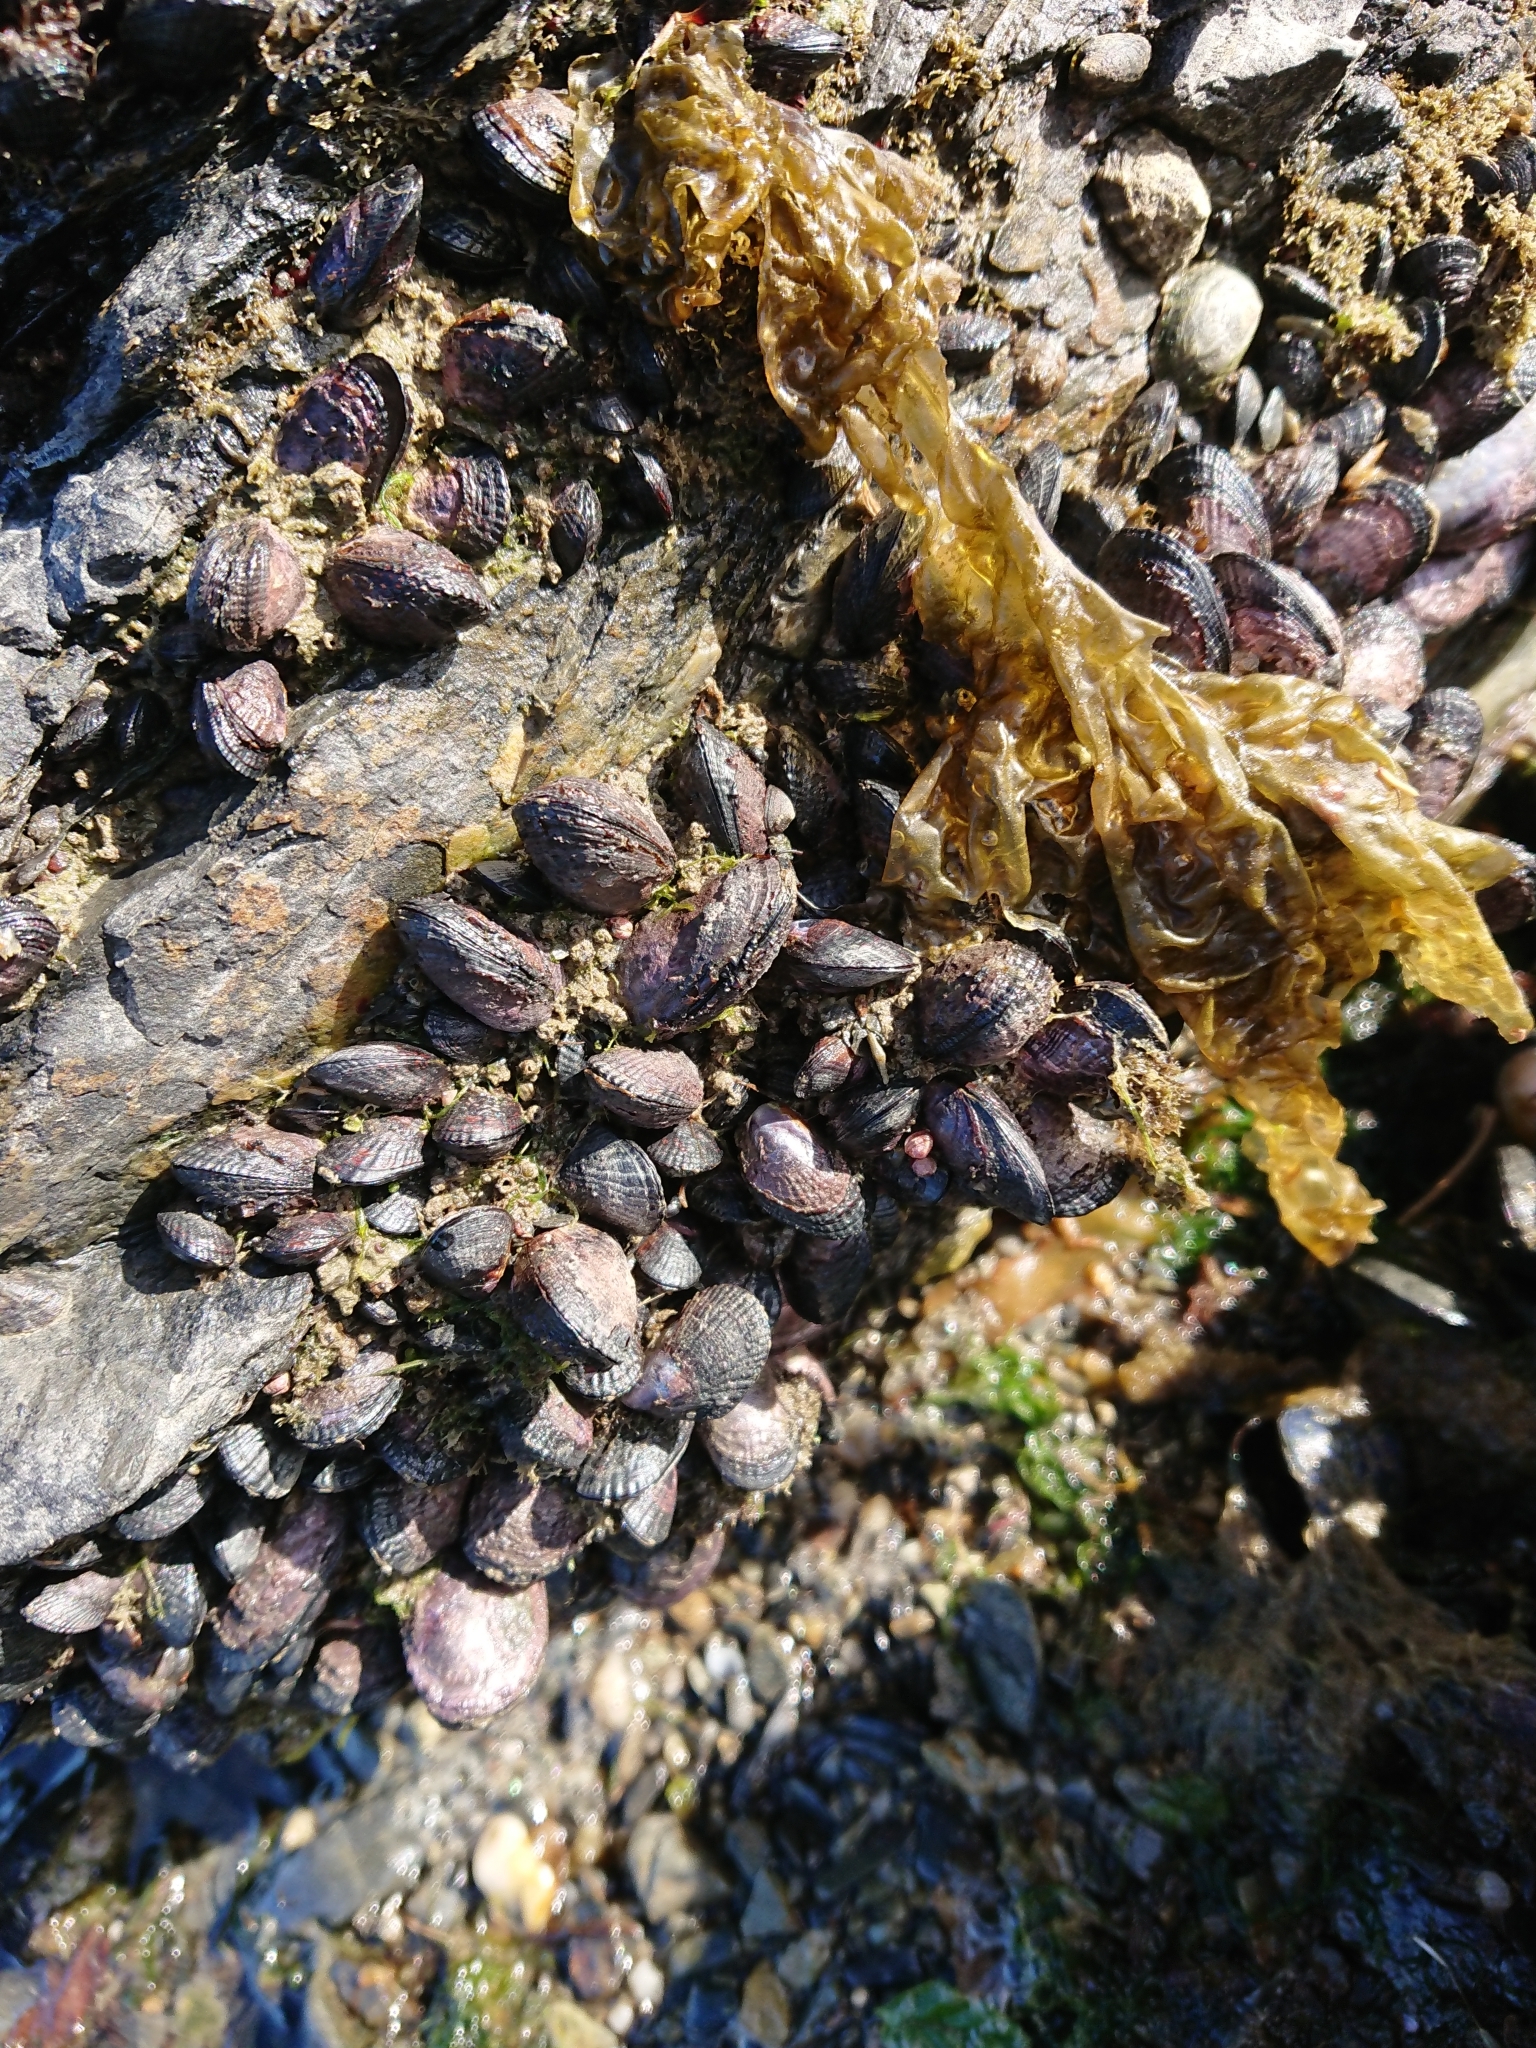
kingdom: Animalia
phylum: Mollusca
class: Bivalvia
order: Mytilida
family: Mytilidae
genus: Perumytilus
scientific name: Perumytilus purpuratus
